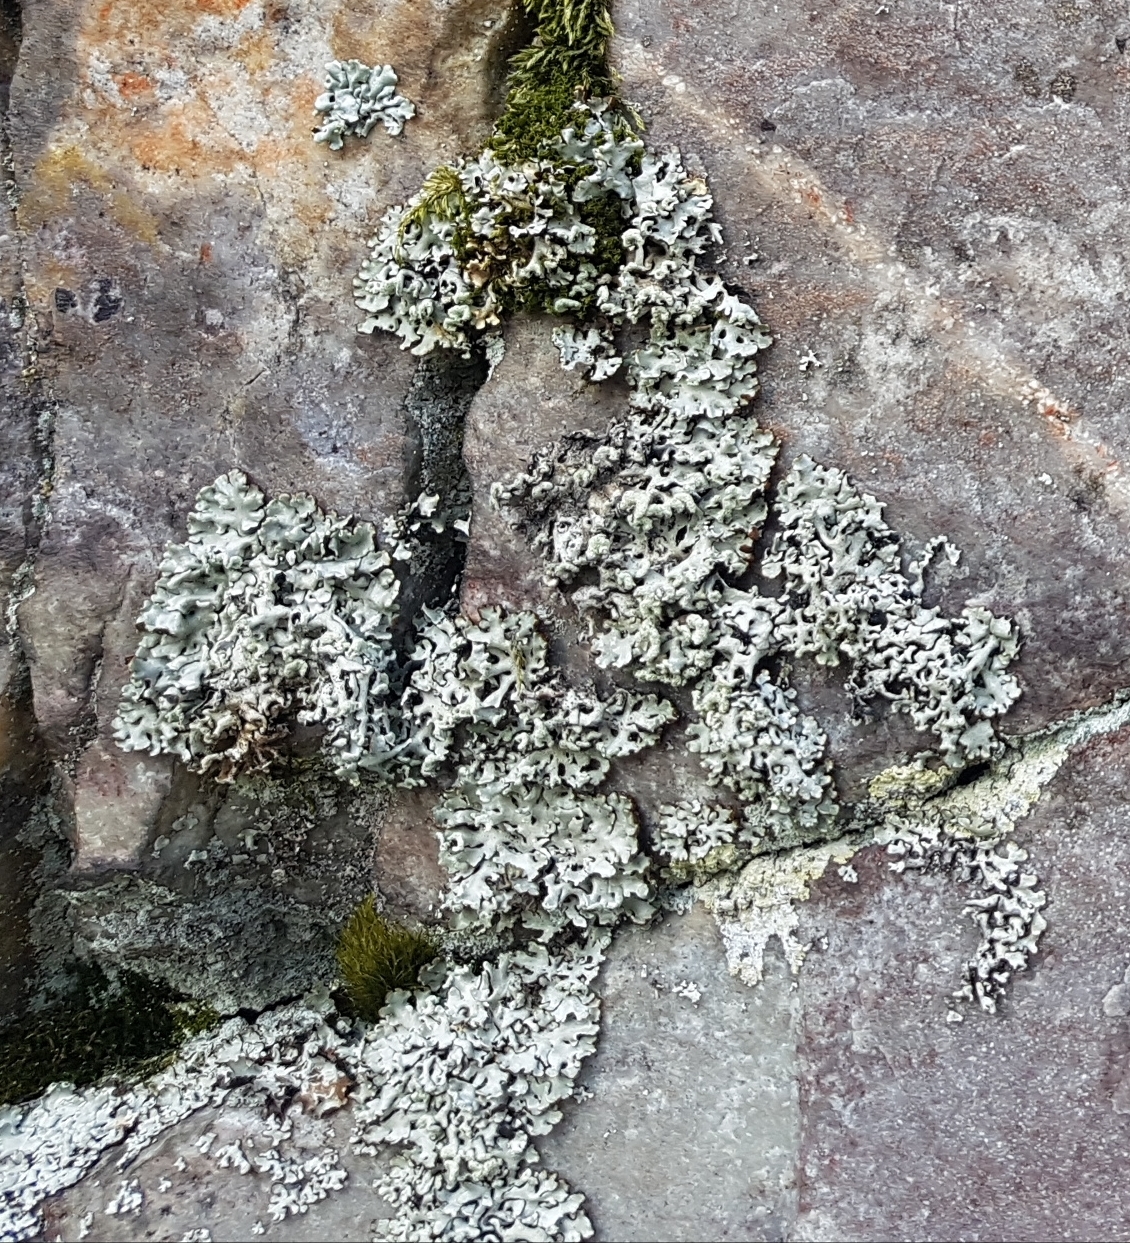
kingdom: Fungi
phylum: Ascomycota
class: Lecanoromycetes
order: Lecanorales
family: Parmeliaceae
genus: Hypogymnia
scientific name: Hypogymnia physodes
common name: Dark crottle
